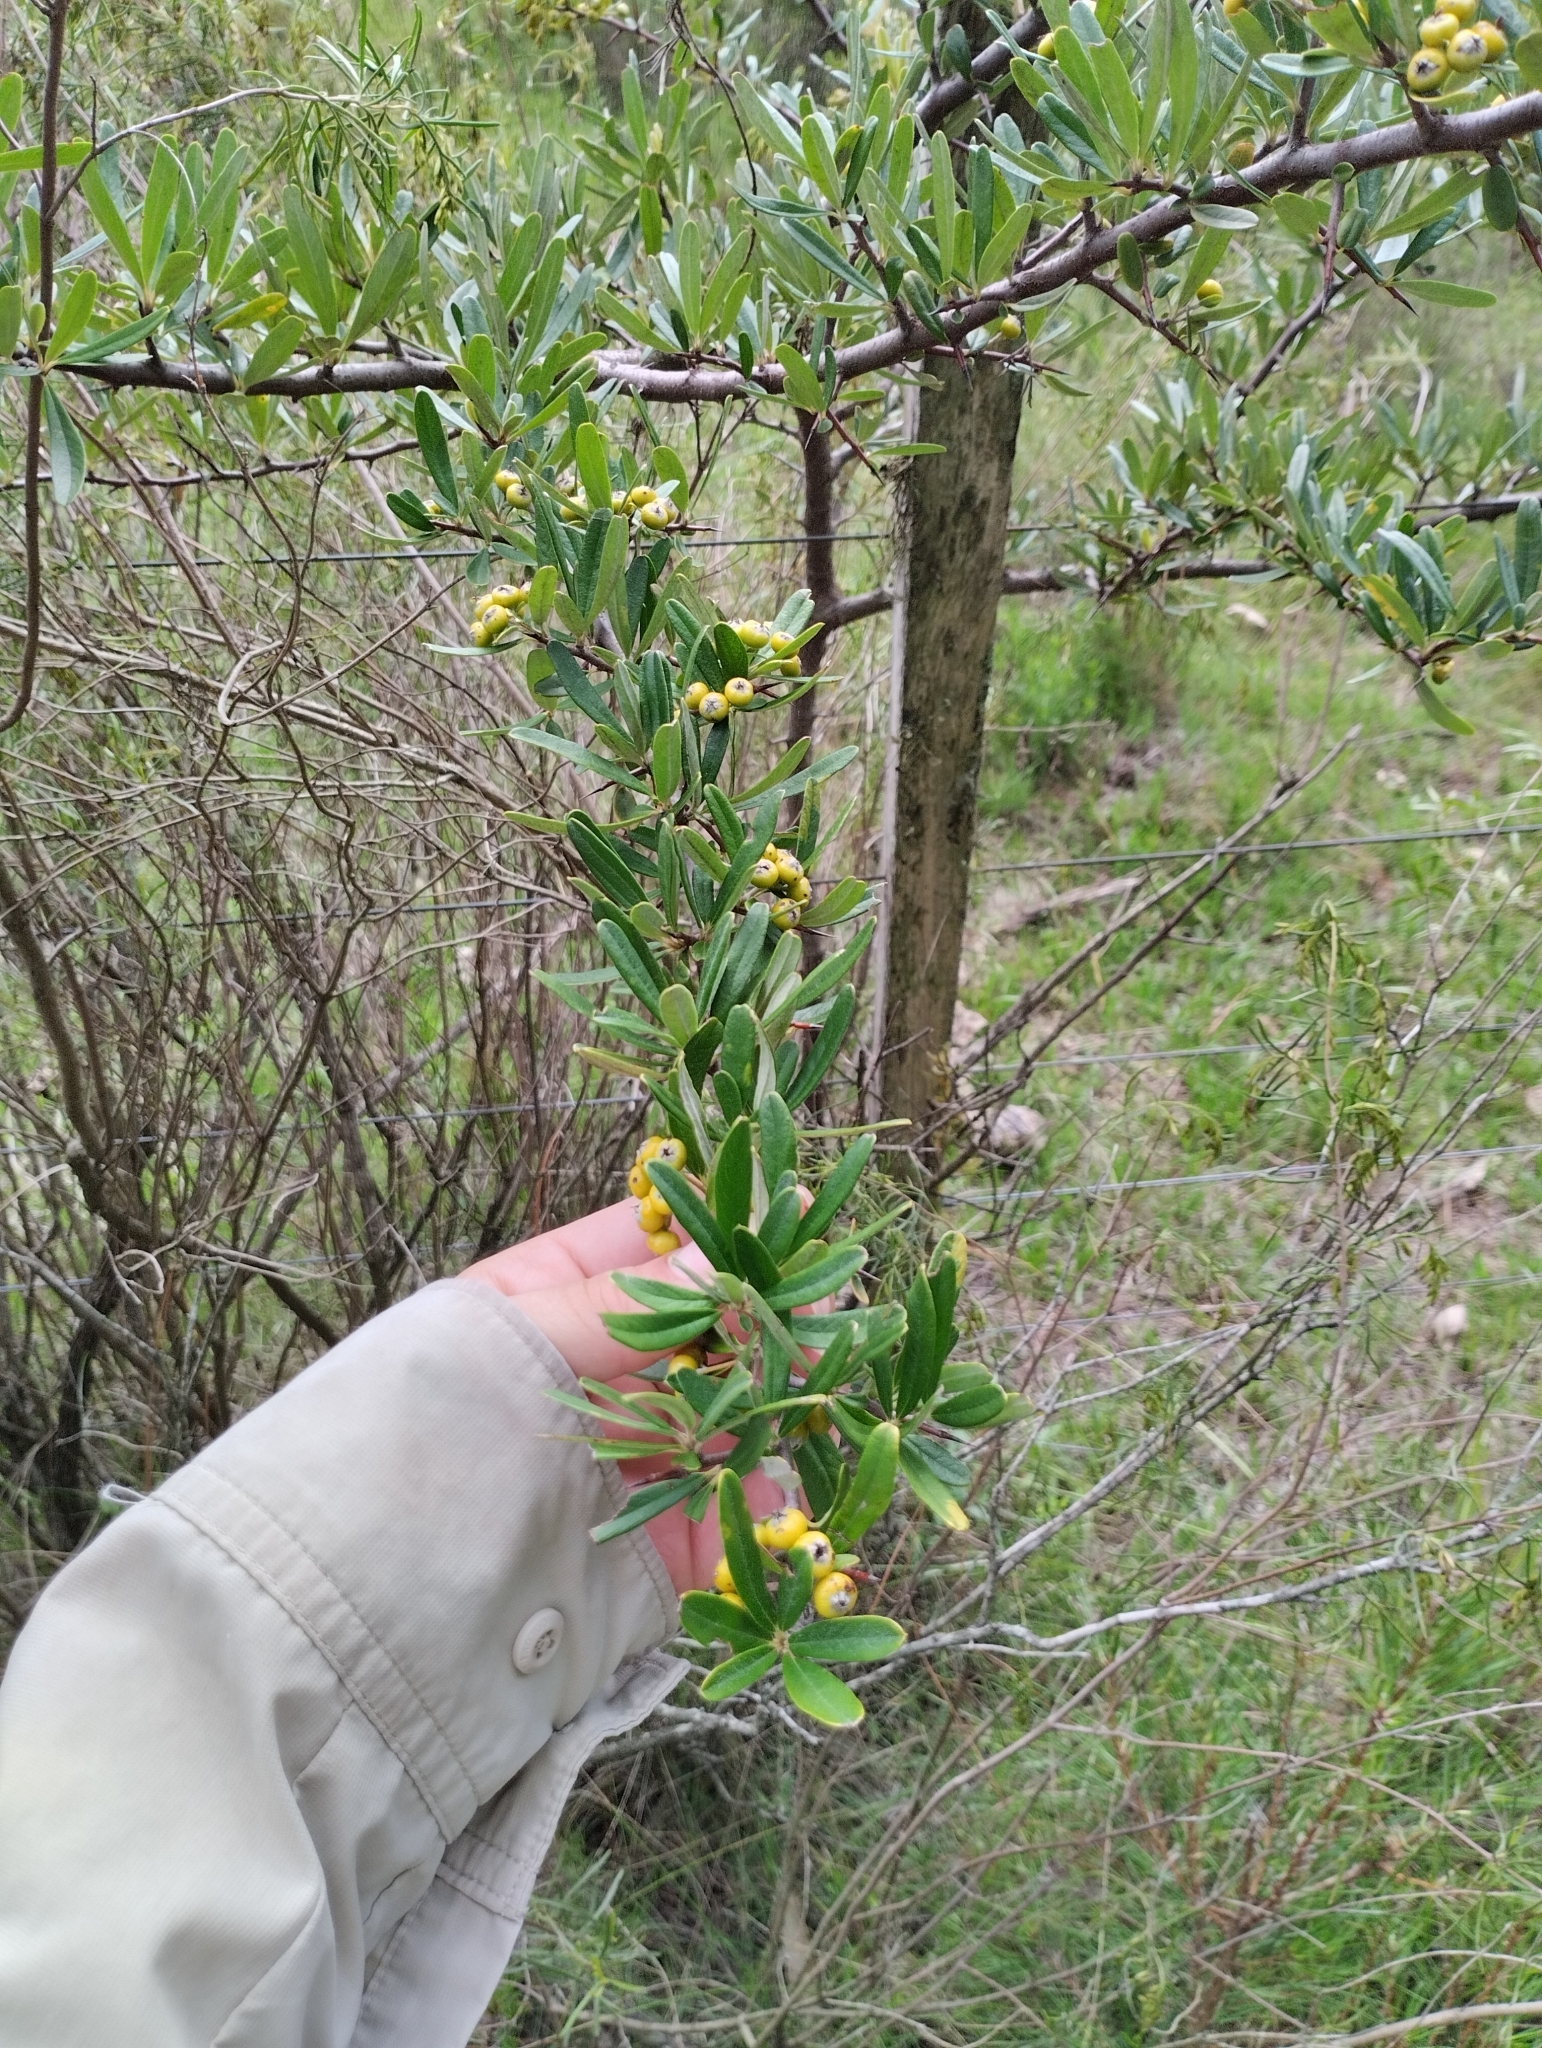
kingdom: Plantae
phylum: Tracheophyta
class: Magnoliopsida
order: Rosales
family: Rosaceae
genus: Pyracantha
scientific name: Pyracantha angustifolia
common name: Narrowleaf firethorn
